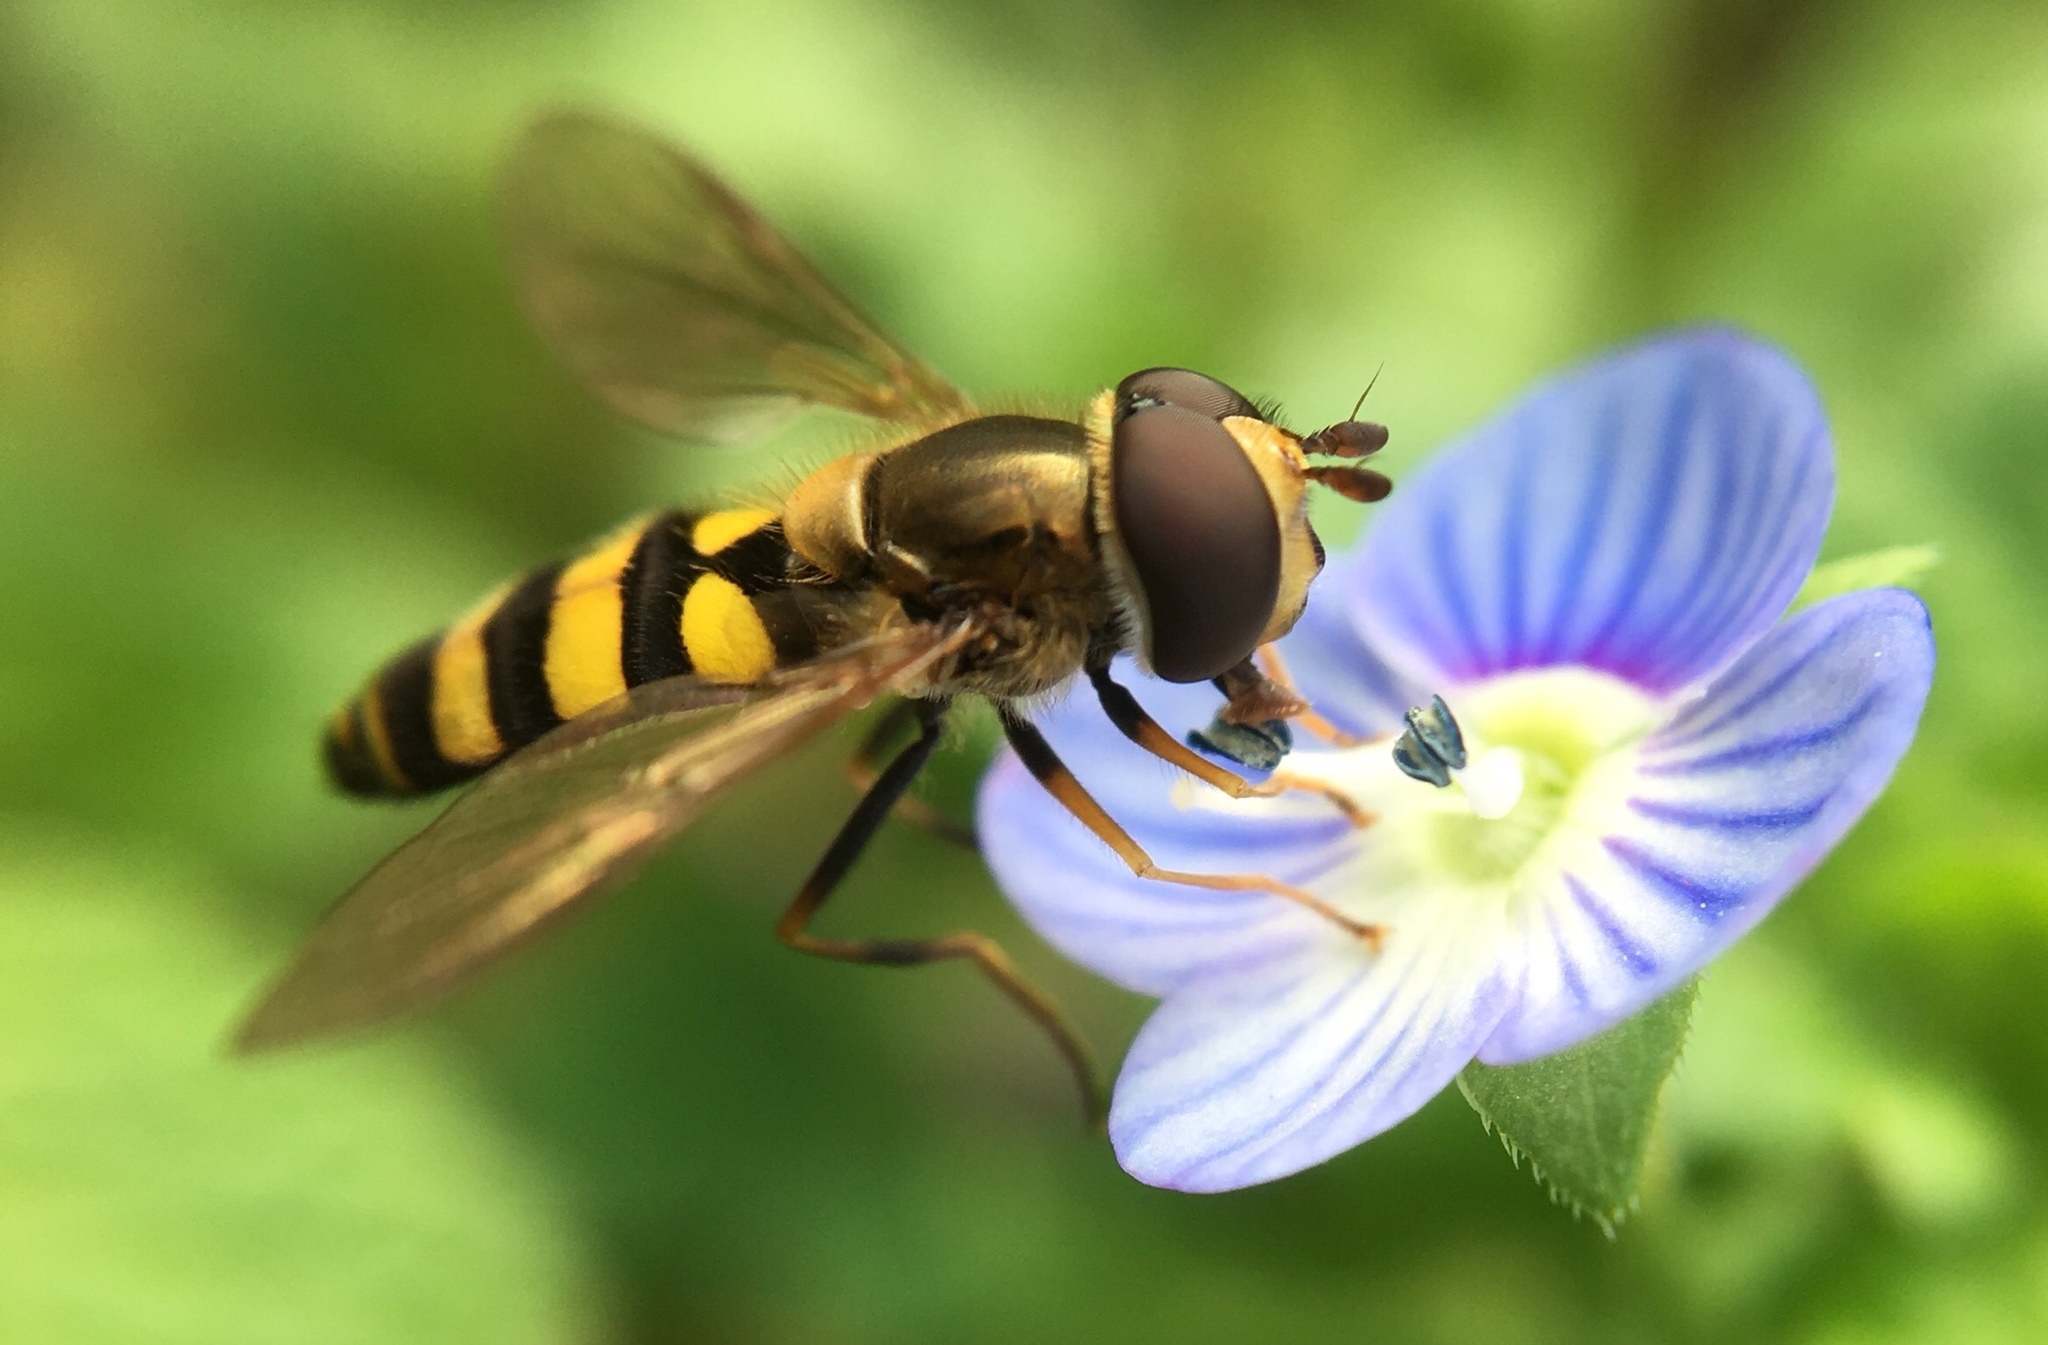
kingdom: Animalia
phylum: Arthropoda
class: Insecta
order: Diptera
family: Syrphidae
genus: Eupeodes
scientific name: Eupeodes
